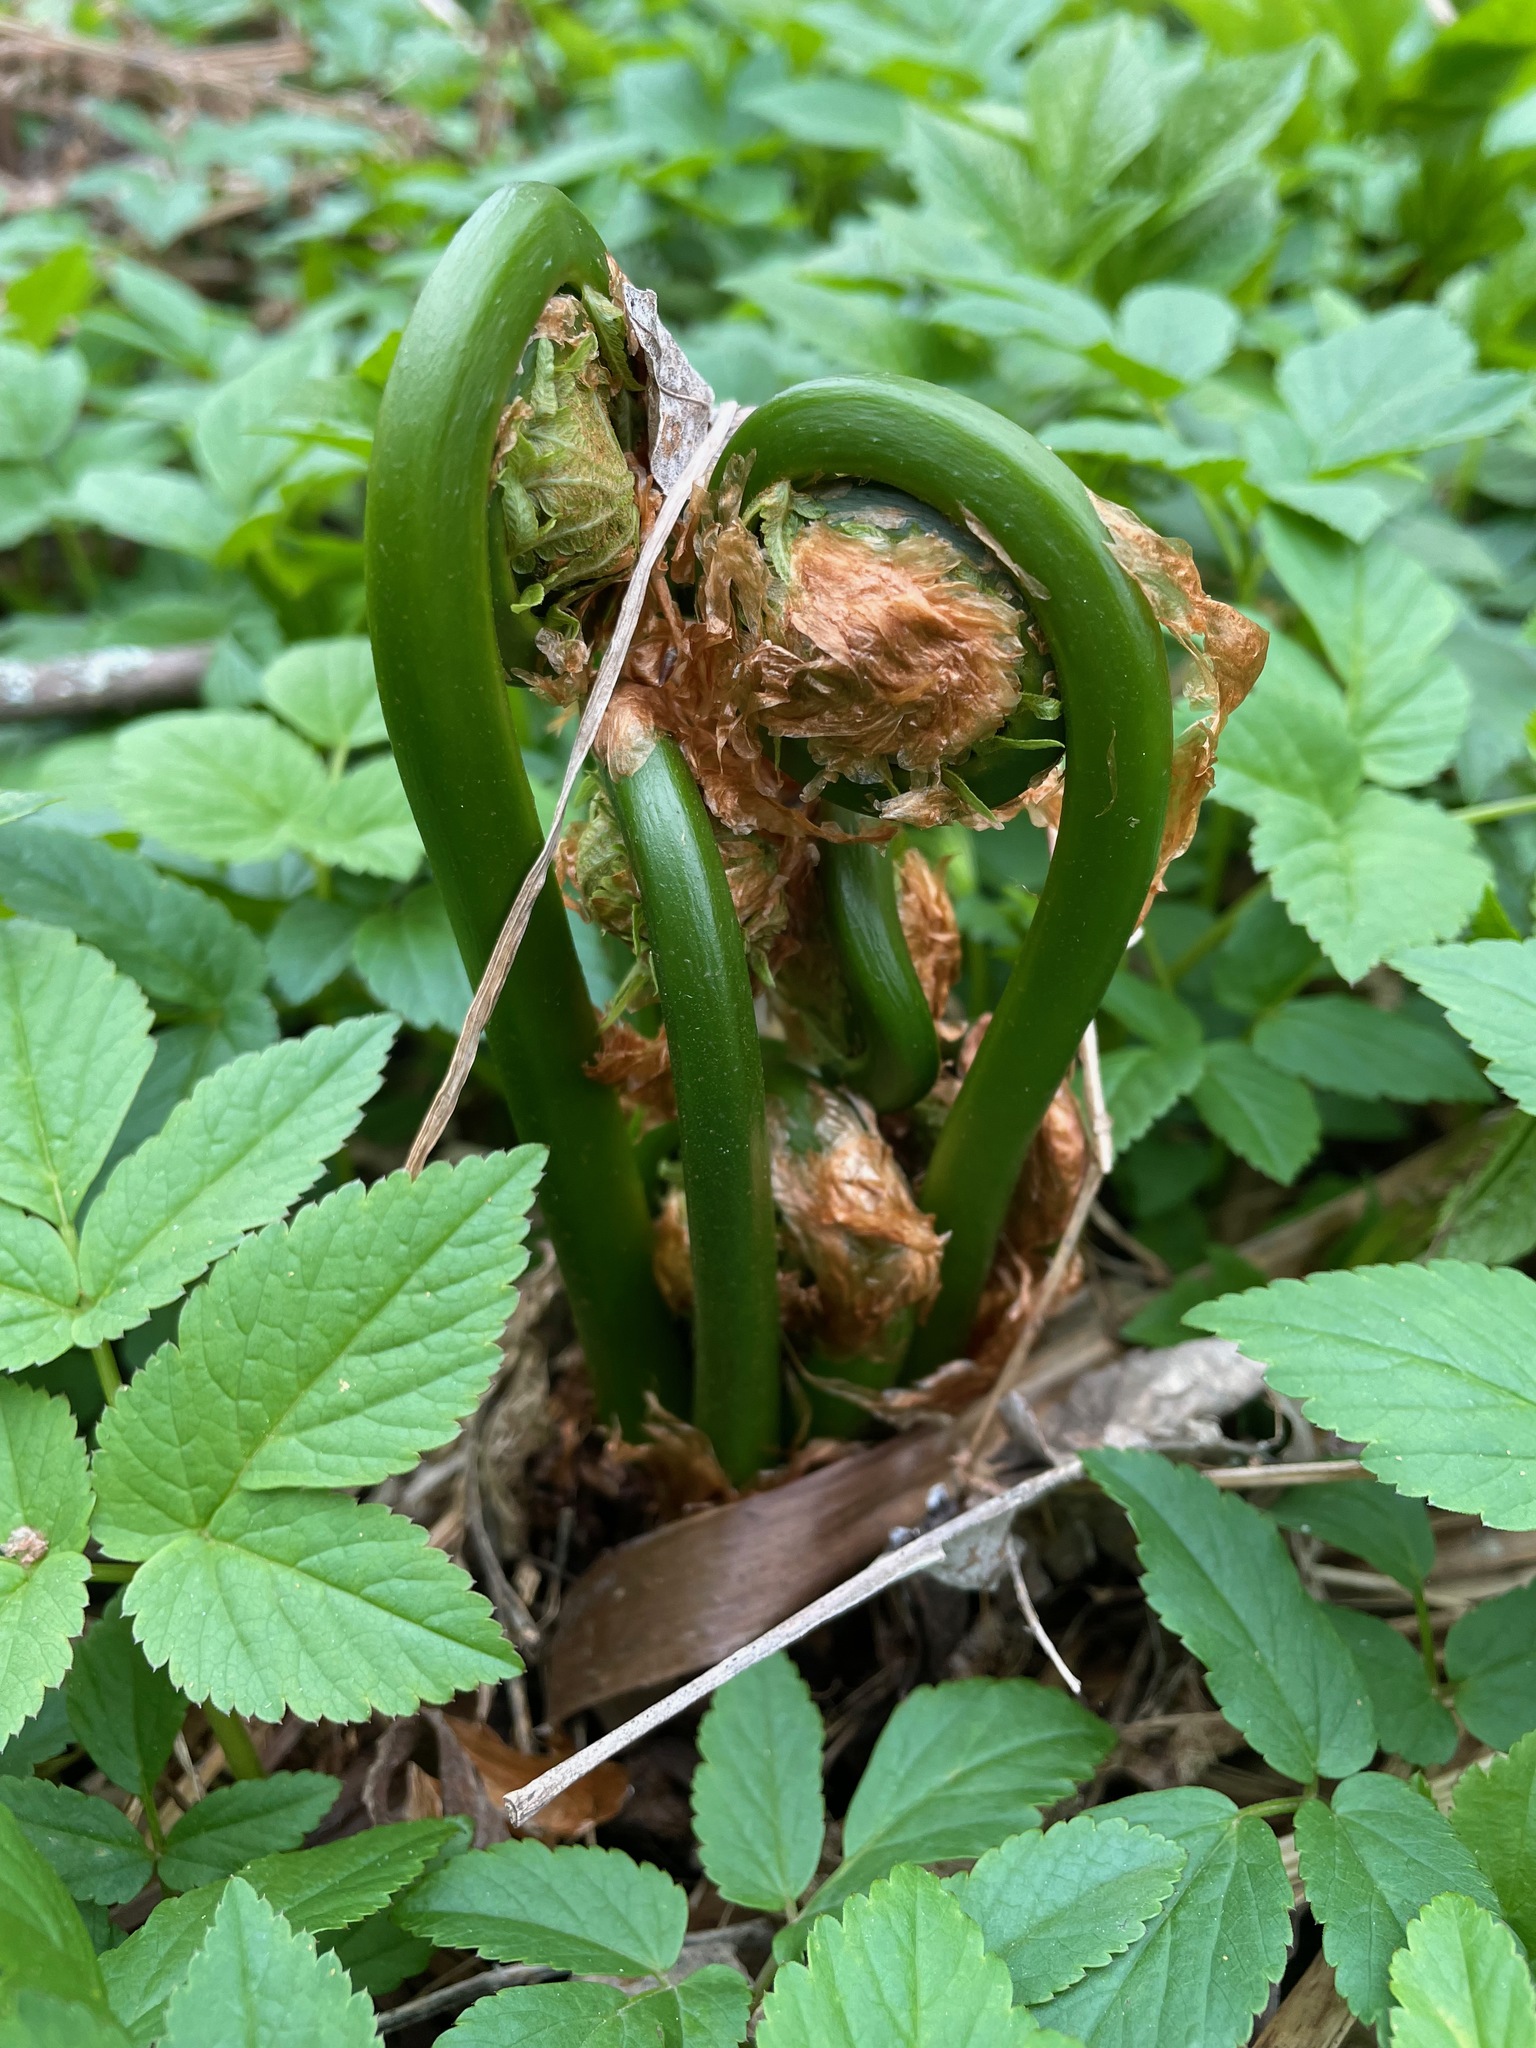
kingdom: Plantae
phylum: Tracheophyta
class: Polypodiopsida
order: Polypodiales
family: Onocleaceae
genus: Matteuccia
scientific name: Matteuccia struthiopteris
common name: Ostrich fern
